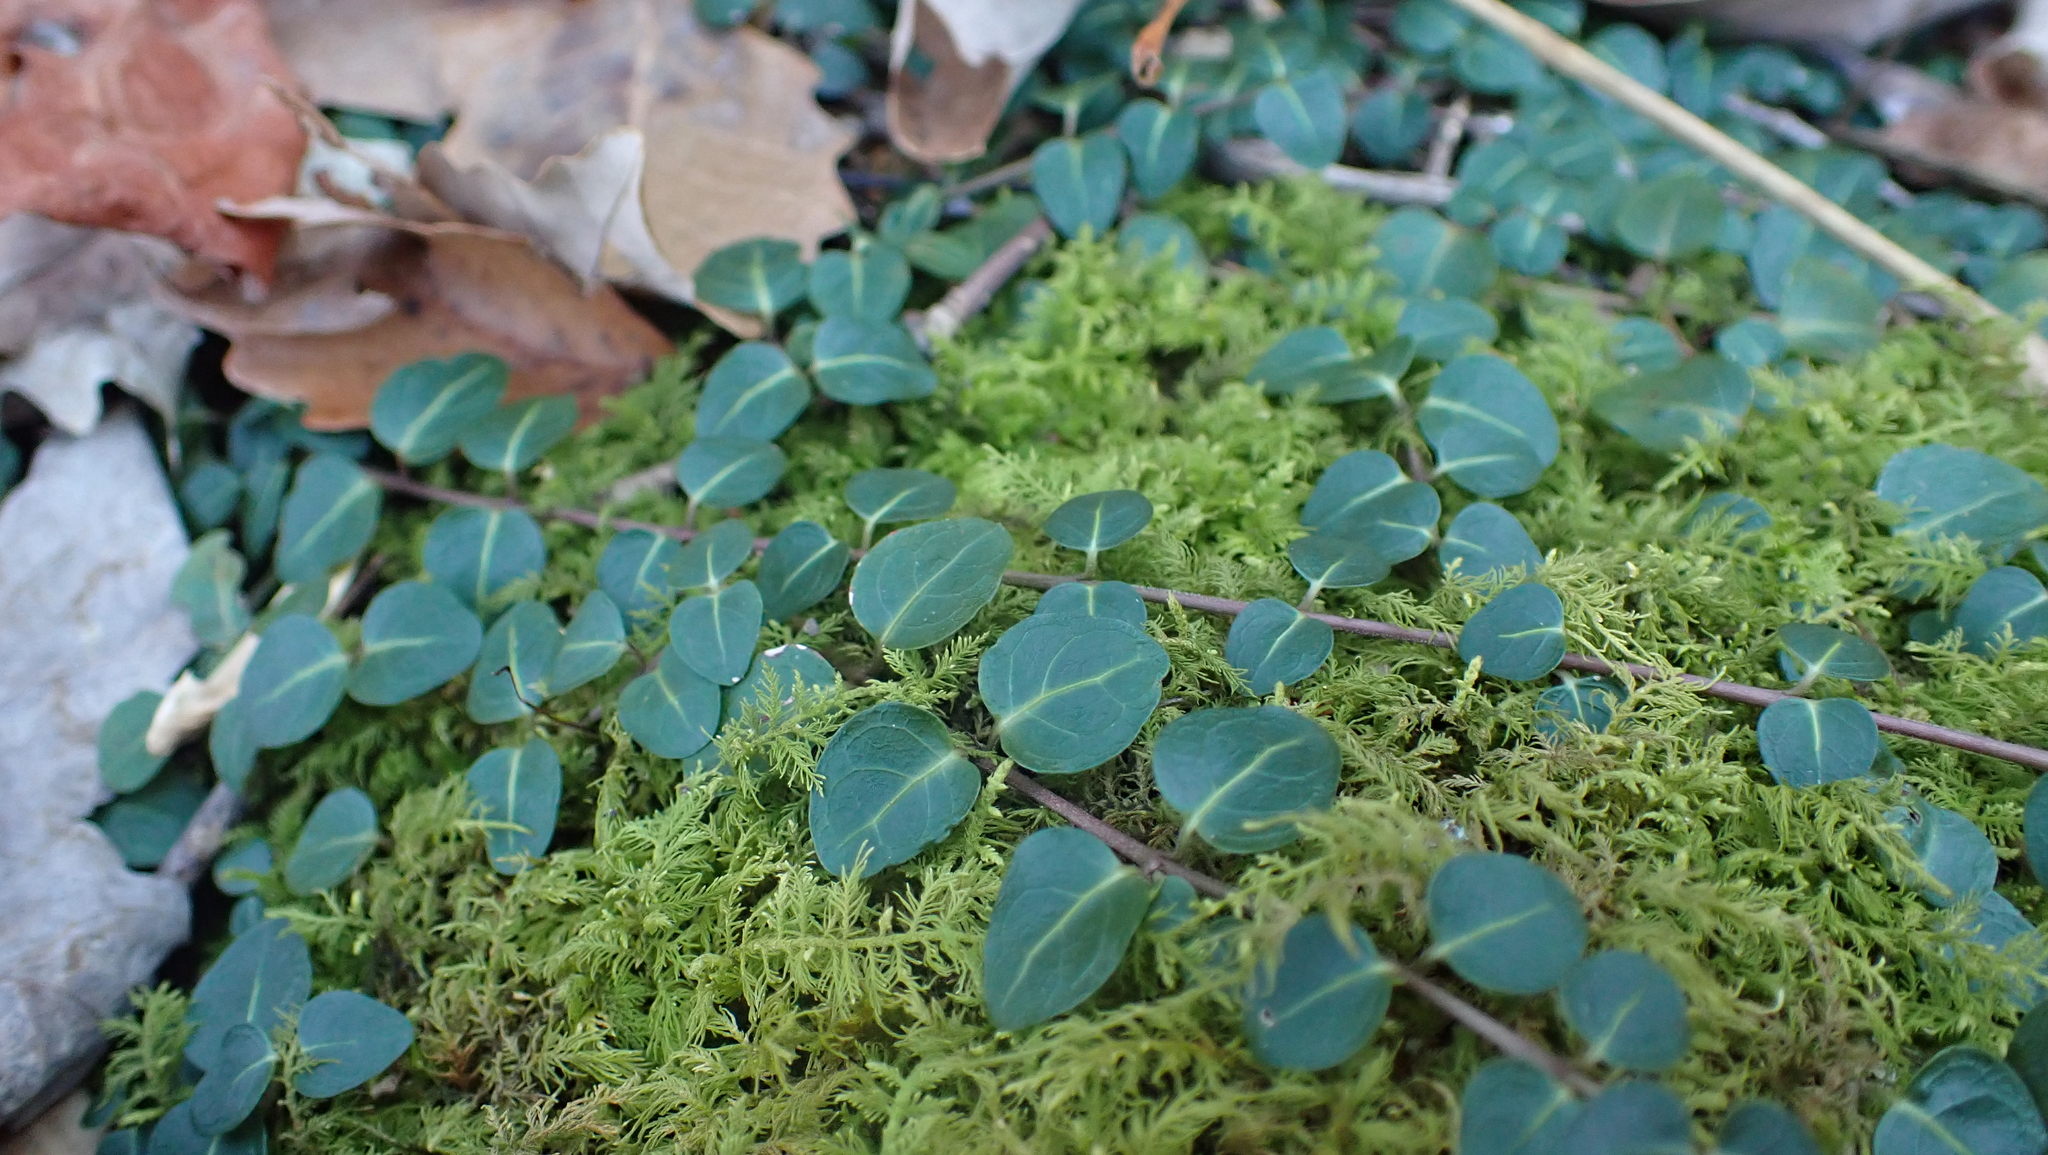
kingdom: Plantae
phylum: Tracheophyta
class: Magnoliopsida
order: Gentianales
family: Rubiaceae
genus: Mitchella
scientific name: Mitchella repens
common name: Partridge-berry
